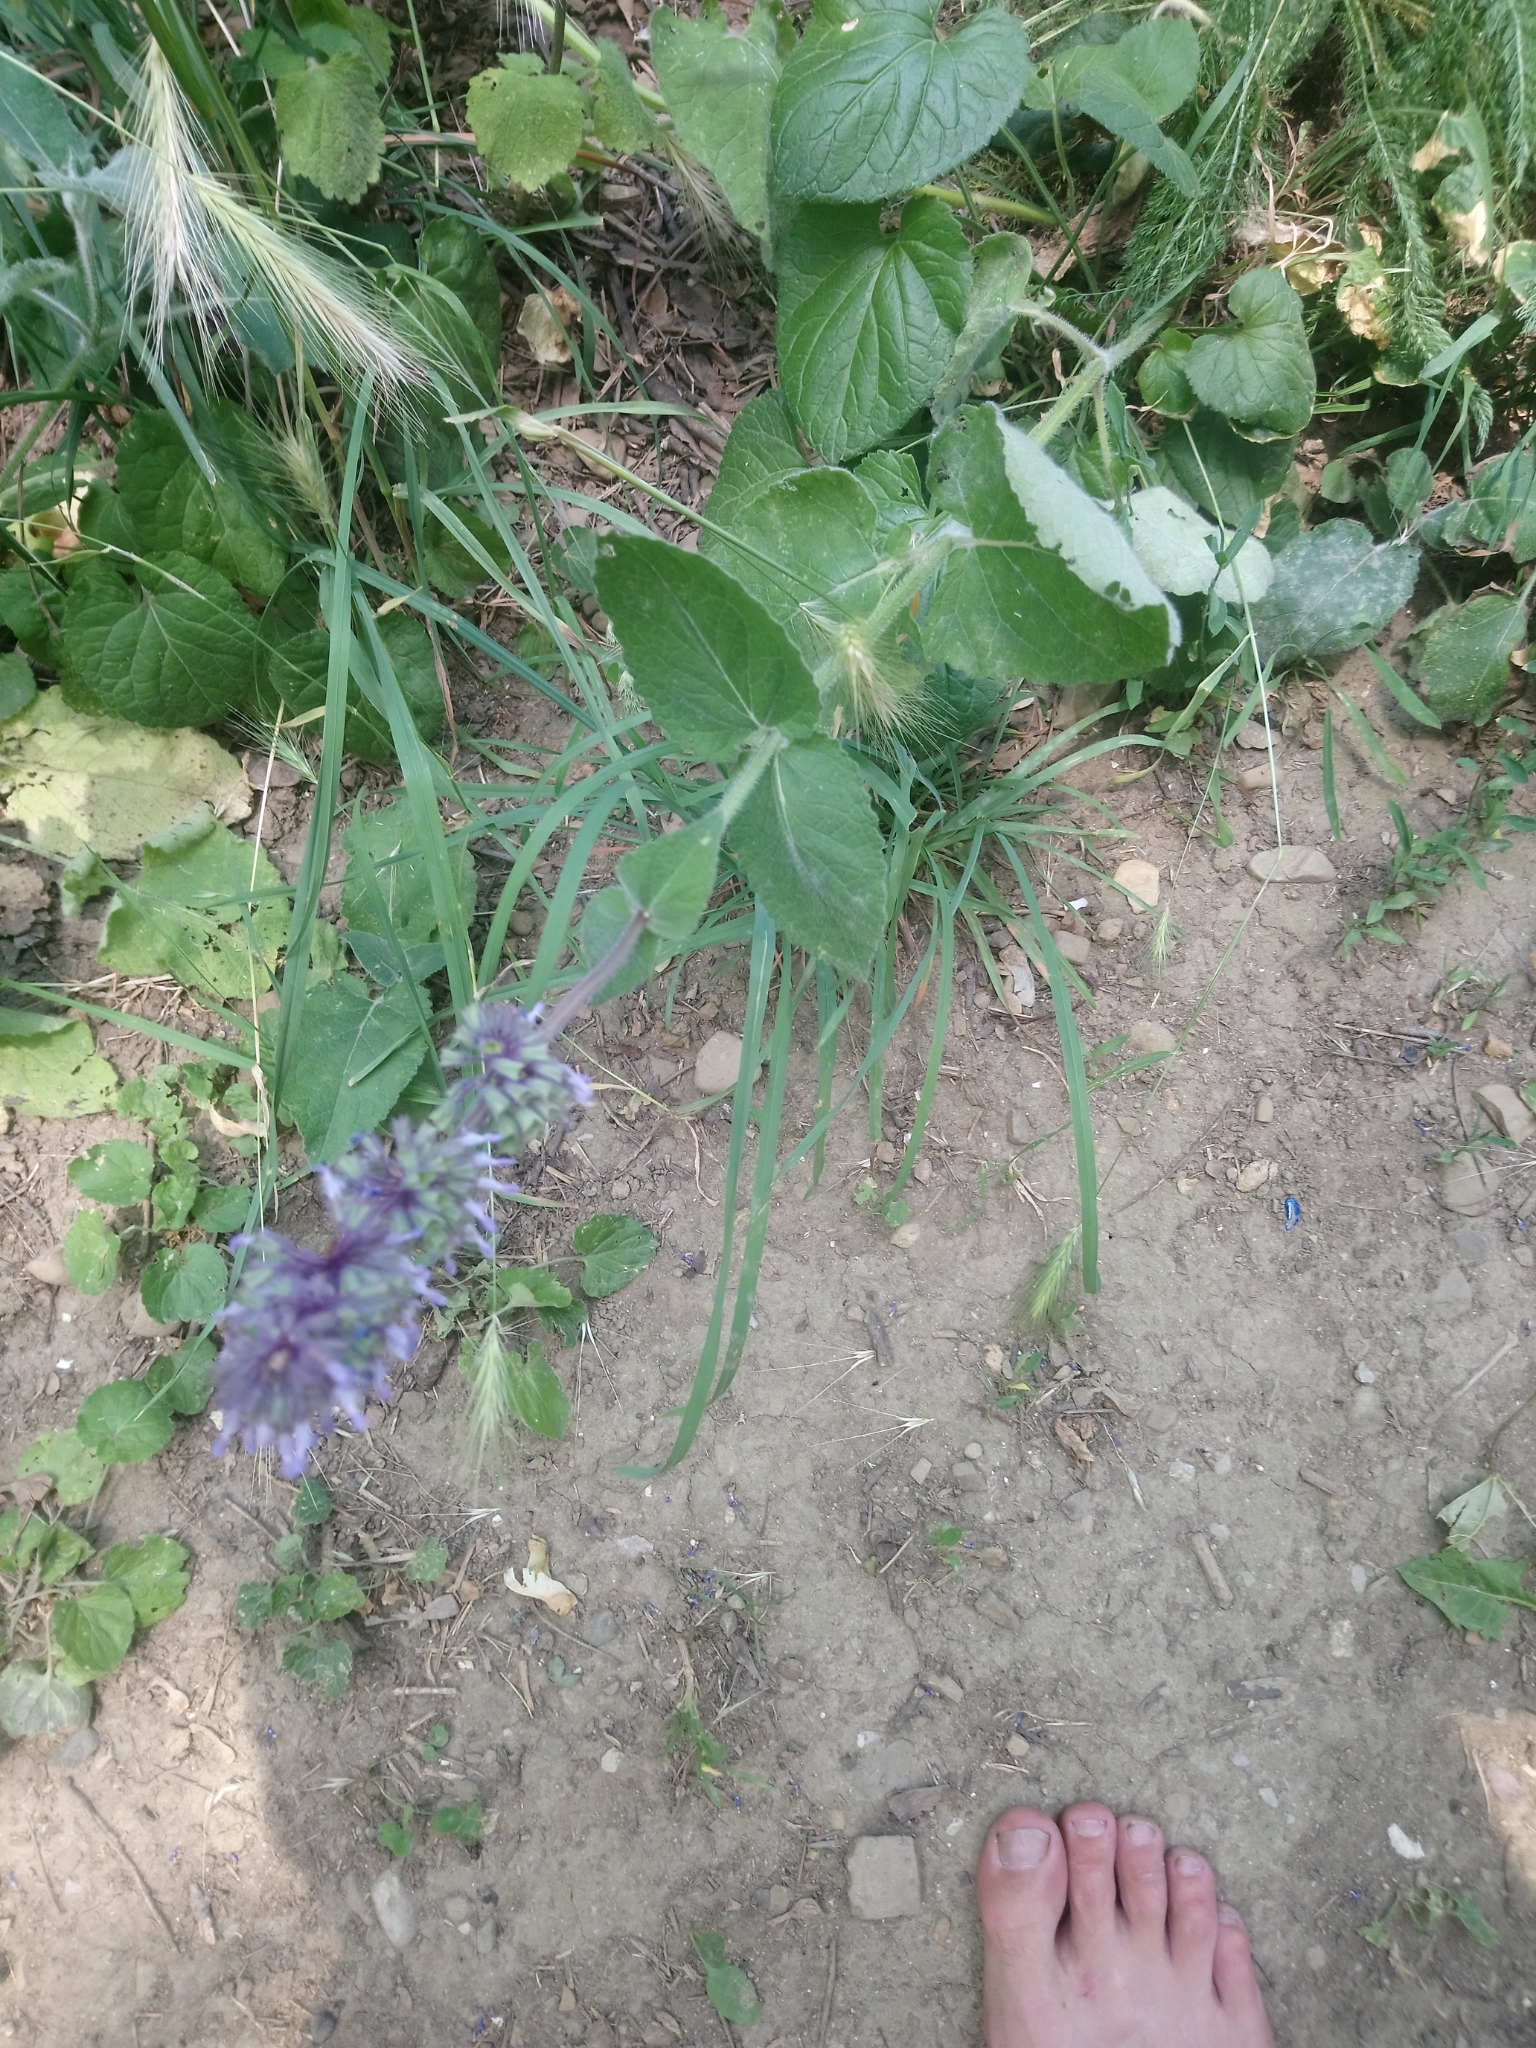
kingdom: Plantae
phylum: Tracheophyta
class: Magnoliopsida
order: Lamiales
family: Lamiaceae
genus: Salvia
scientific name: Salvia verticillata
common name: Whorled clary
